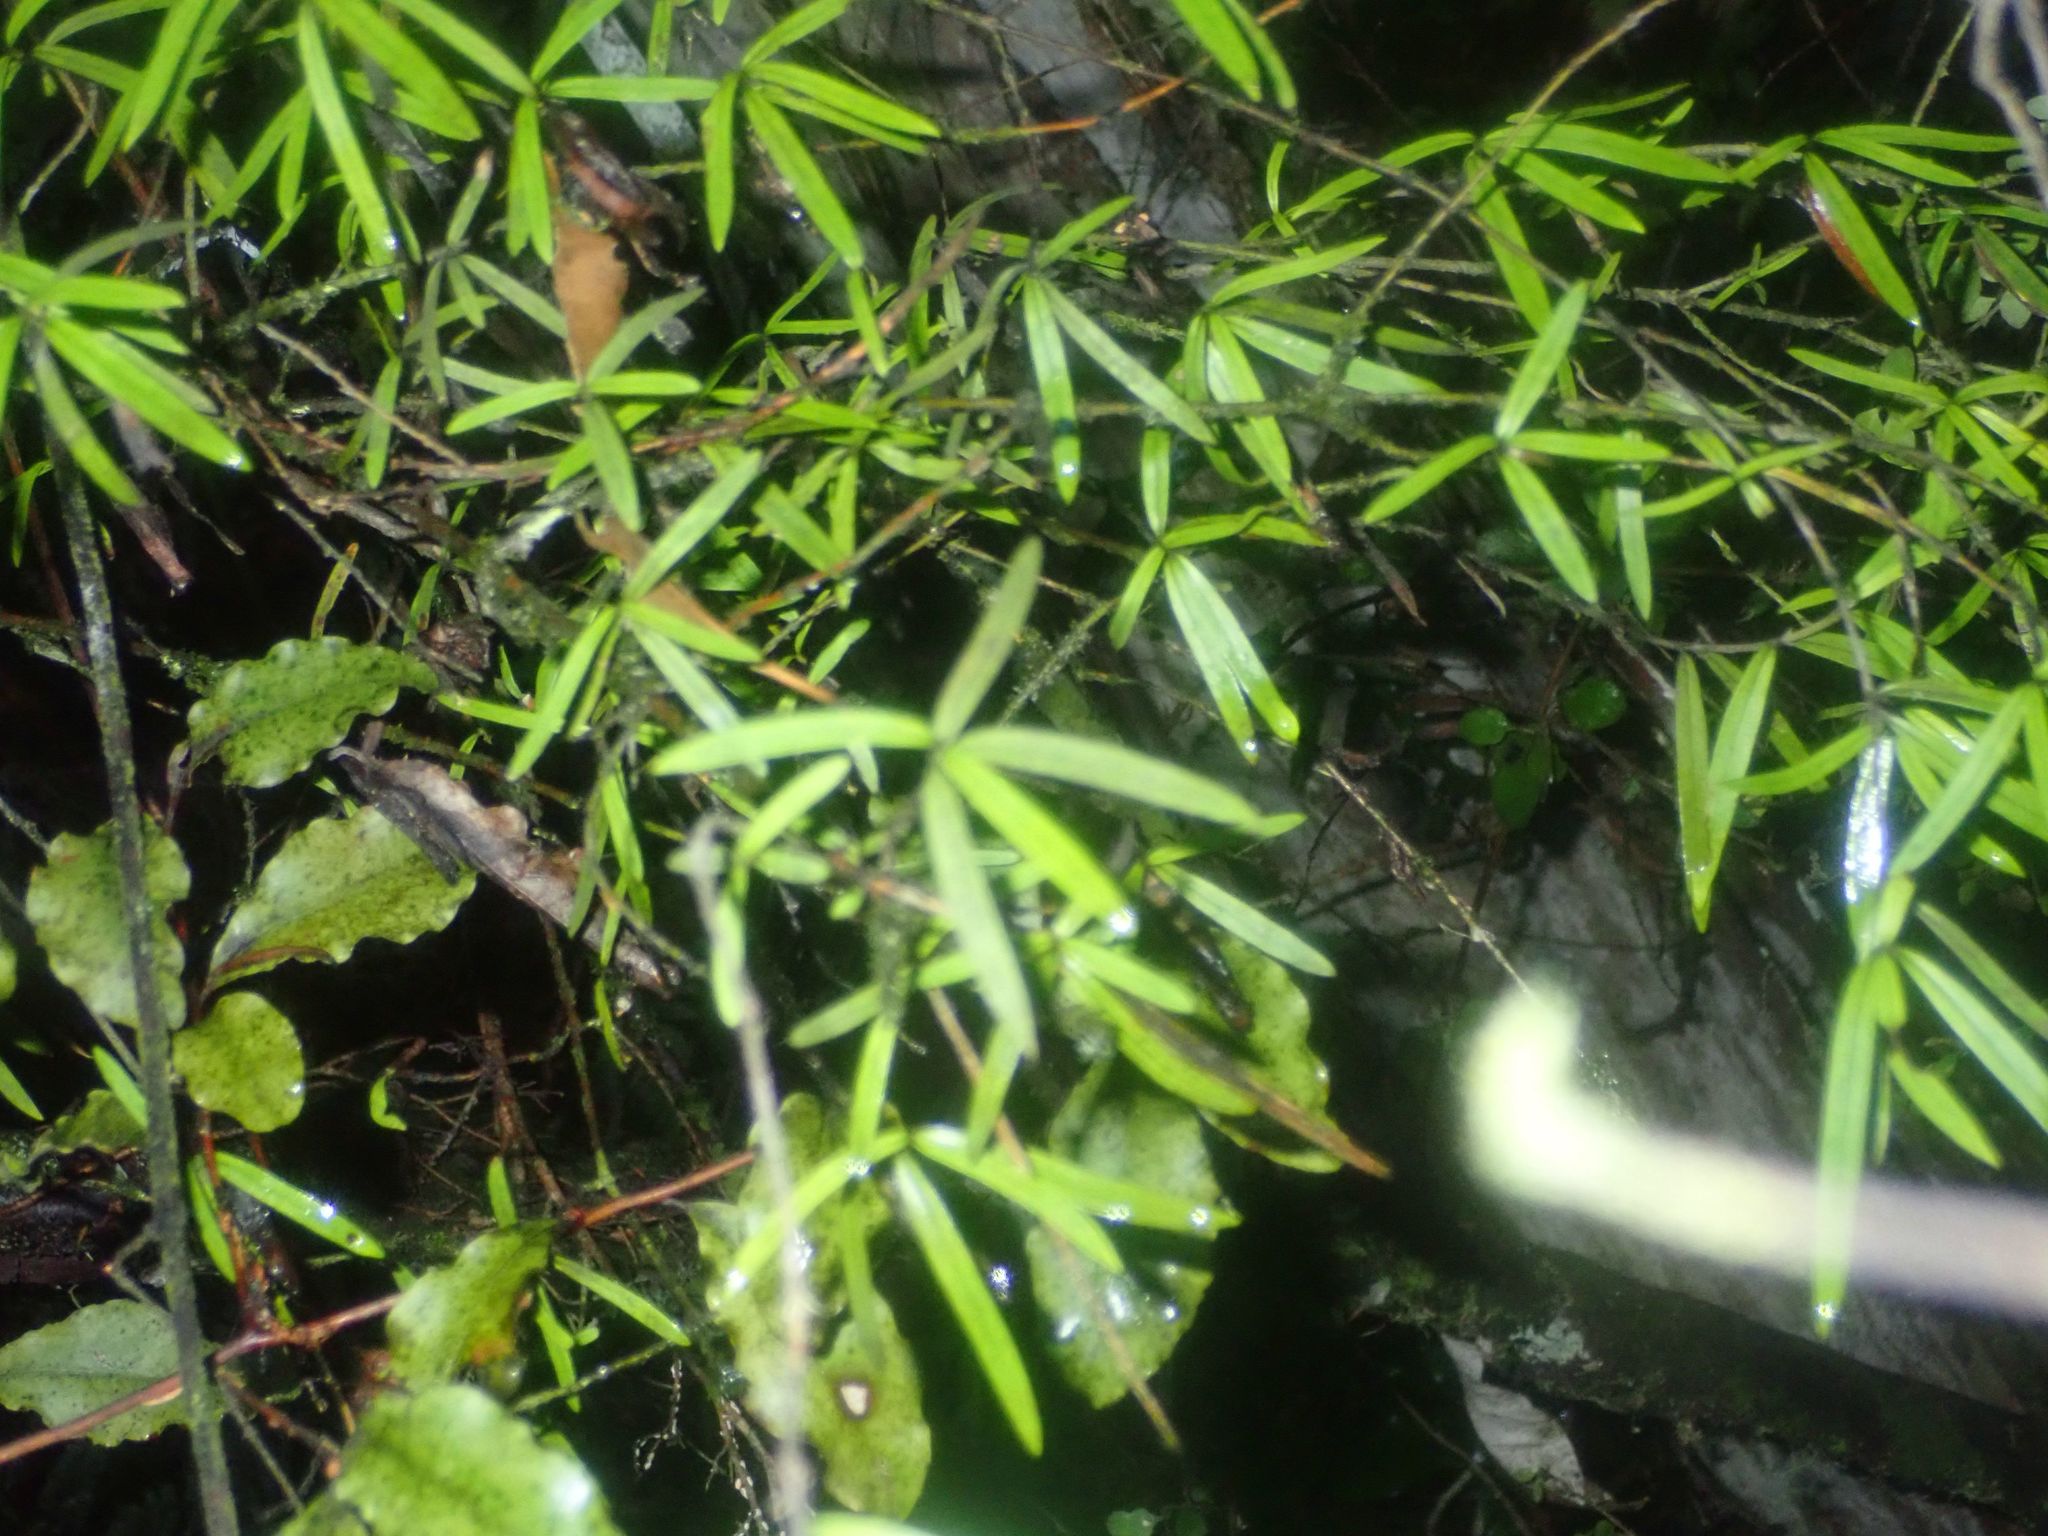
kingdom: Plantae
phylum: Tracheophyta
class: Magnoliopsida
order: Gentianales
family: Rubiaceae
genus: Coprosma
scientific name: Coprosma linariifolia
